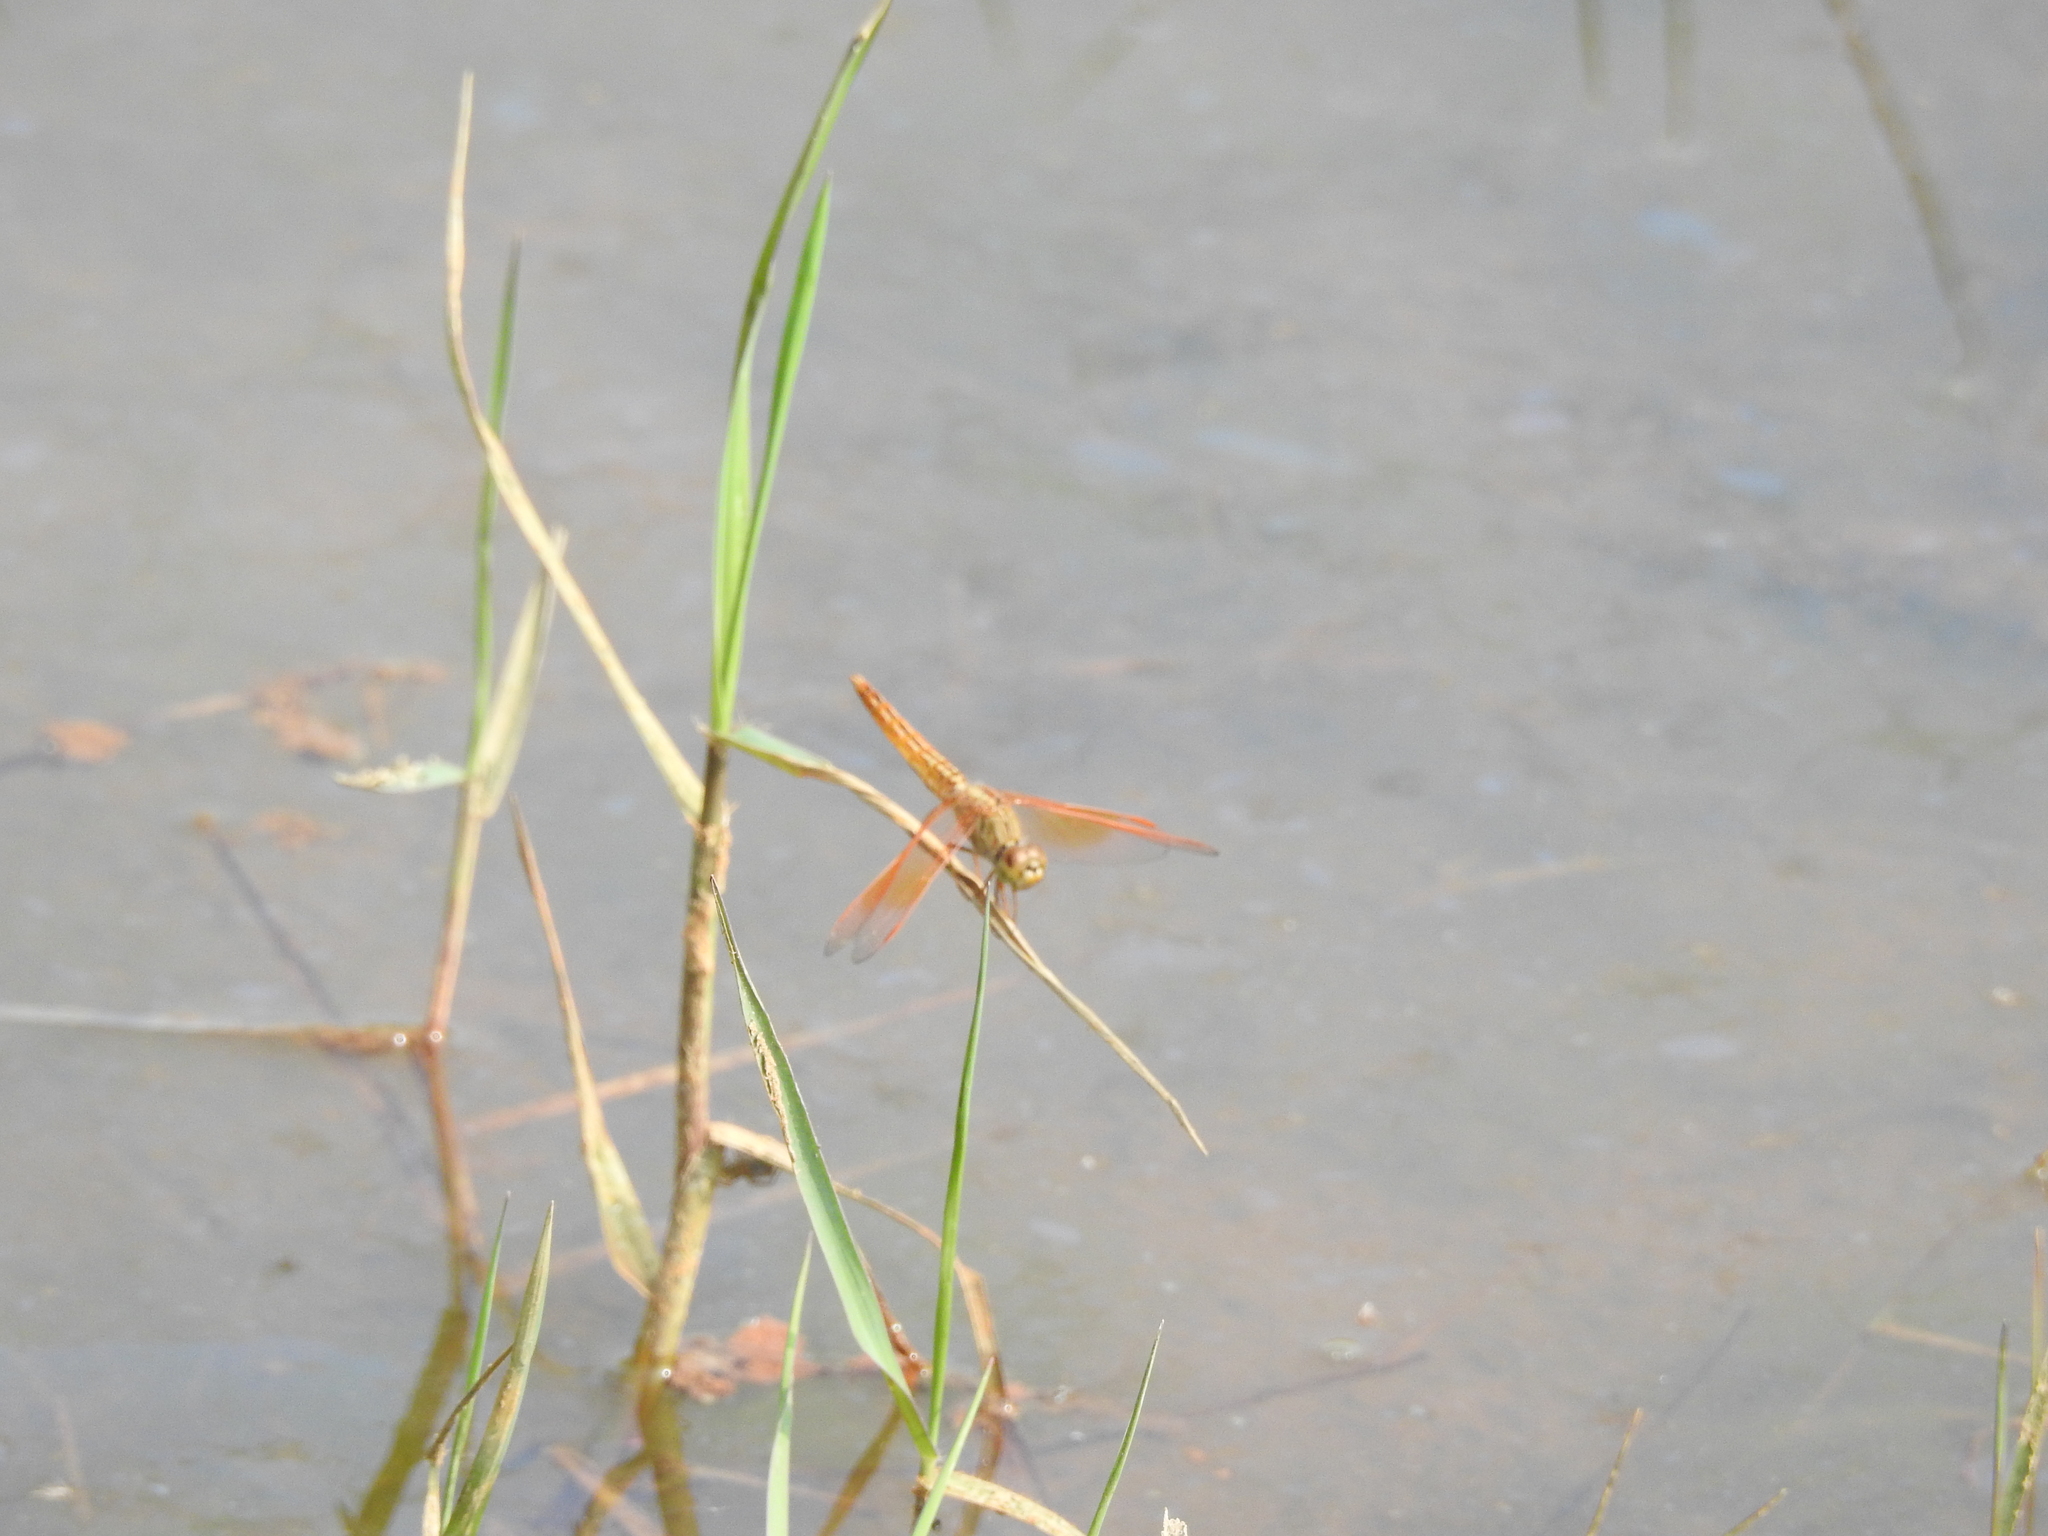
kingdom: Animalia
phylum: Arthropoda
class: Insecta
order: Odonata
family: Libellulidae
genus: Brachythemis
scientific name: Brachythemis contaminata
